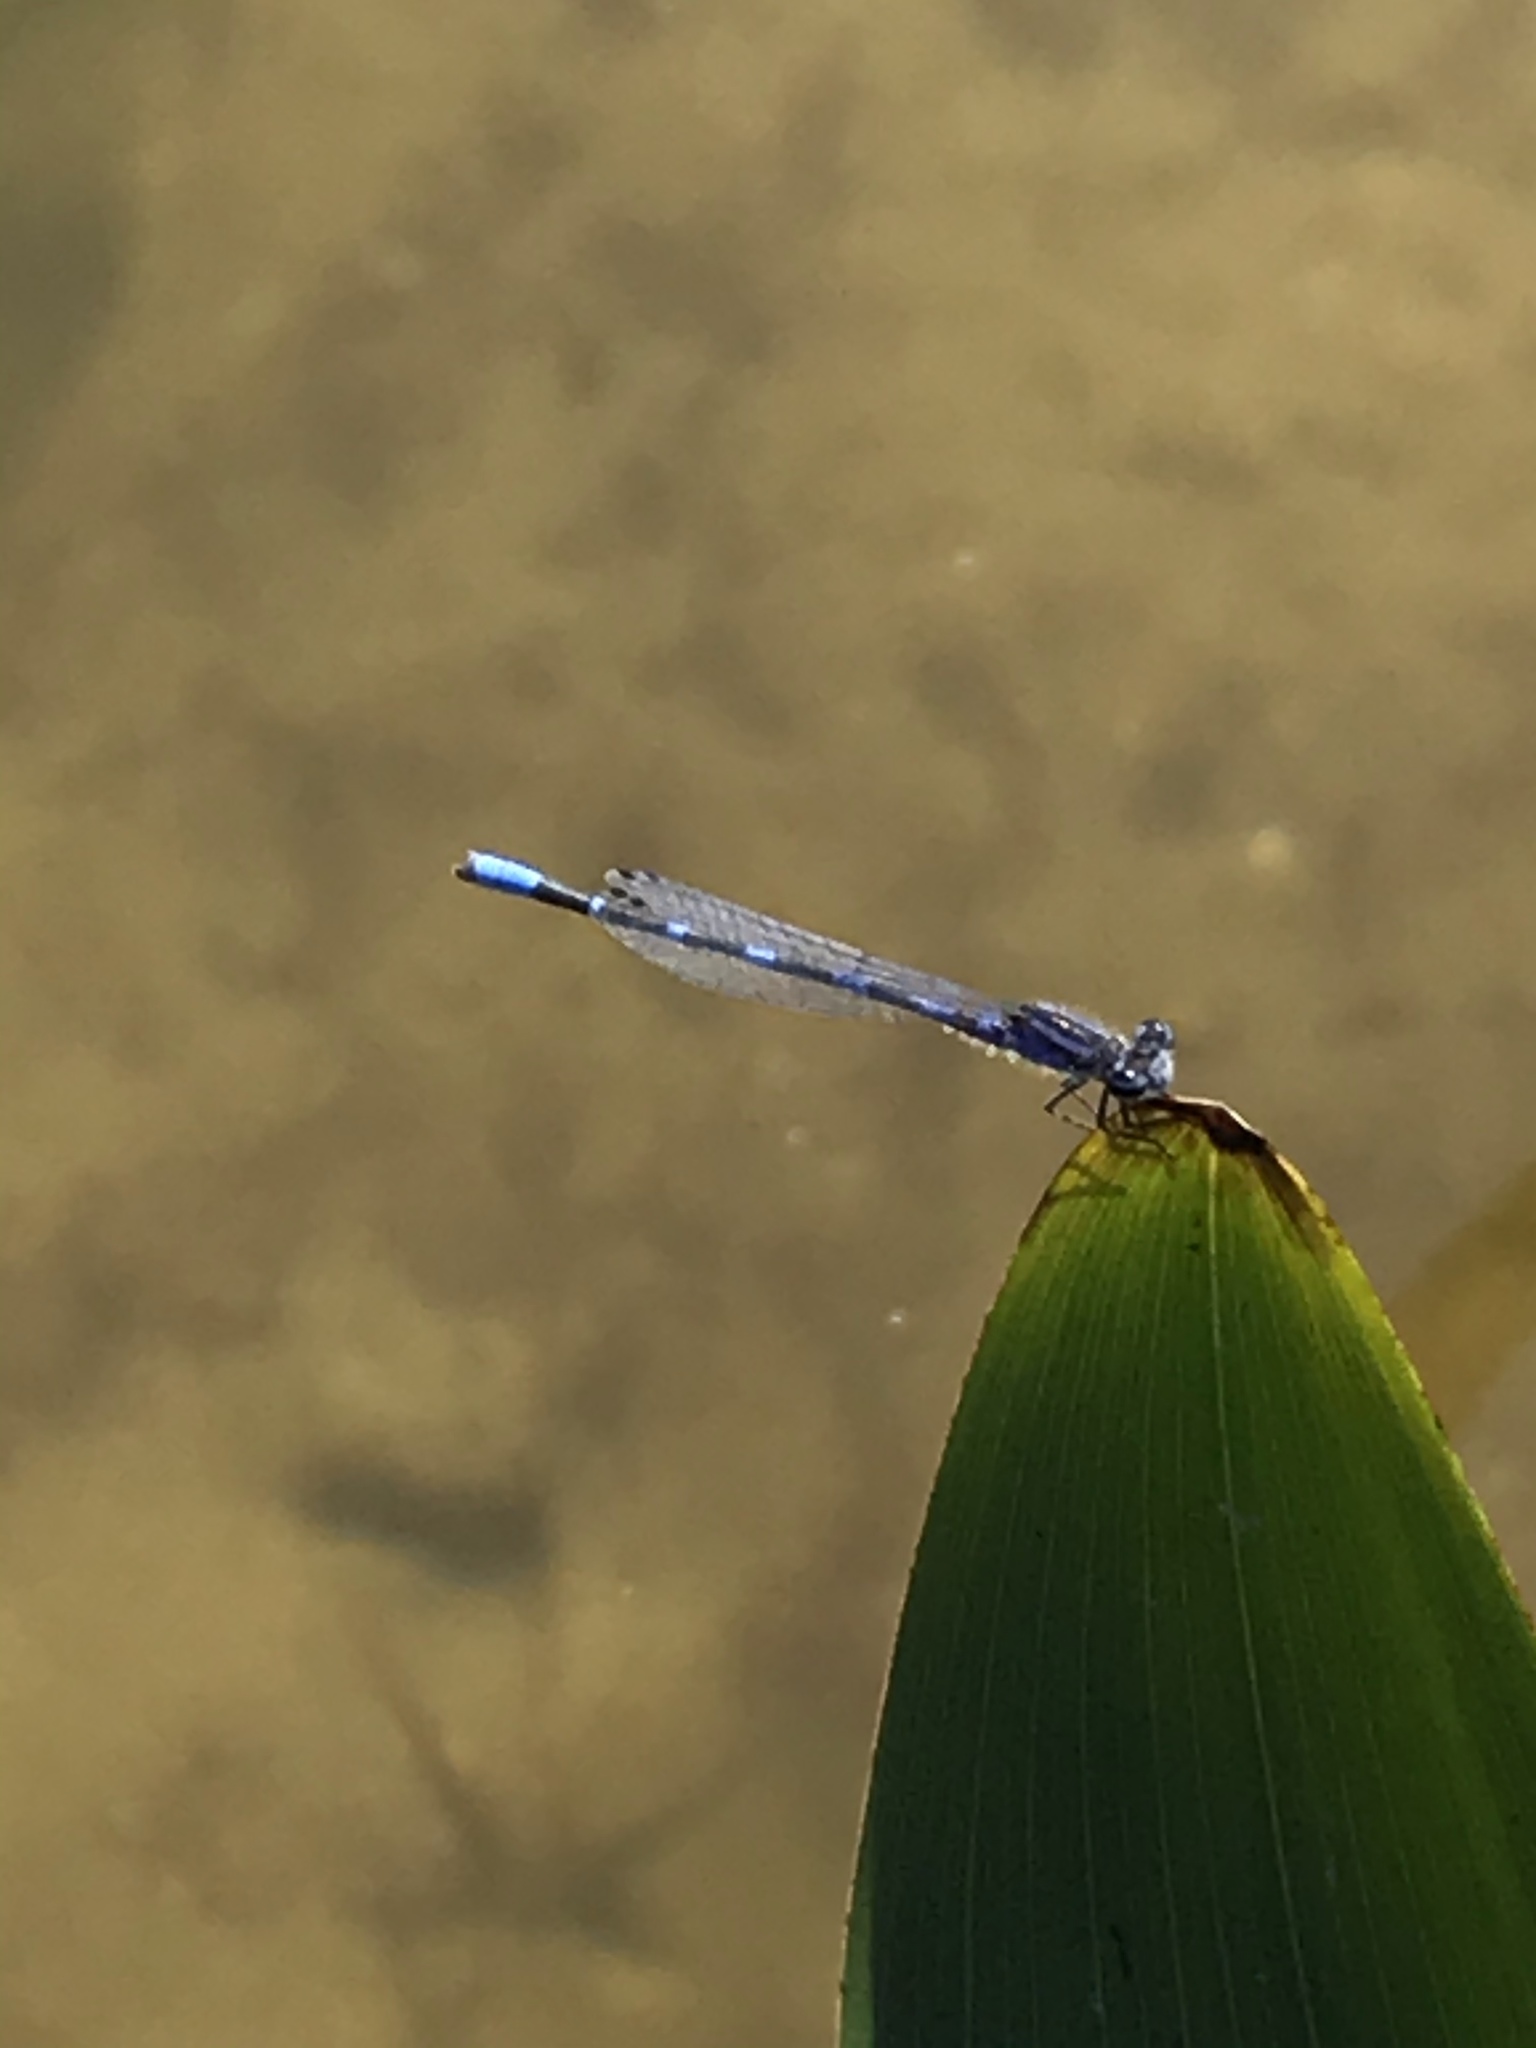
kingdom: Animalia
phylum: Arthropoda
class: Insecta
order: Odonata
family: Coenagrionidae
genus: Enallagma
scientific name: Enallagma minusculum
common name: Little bluet
